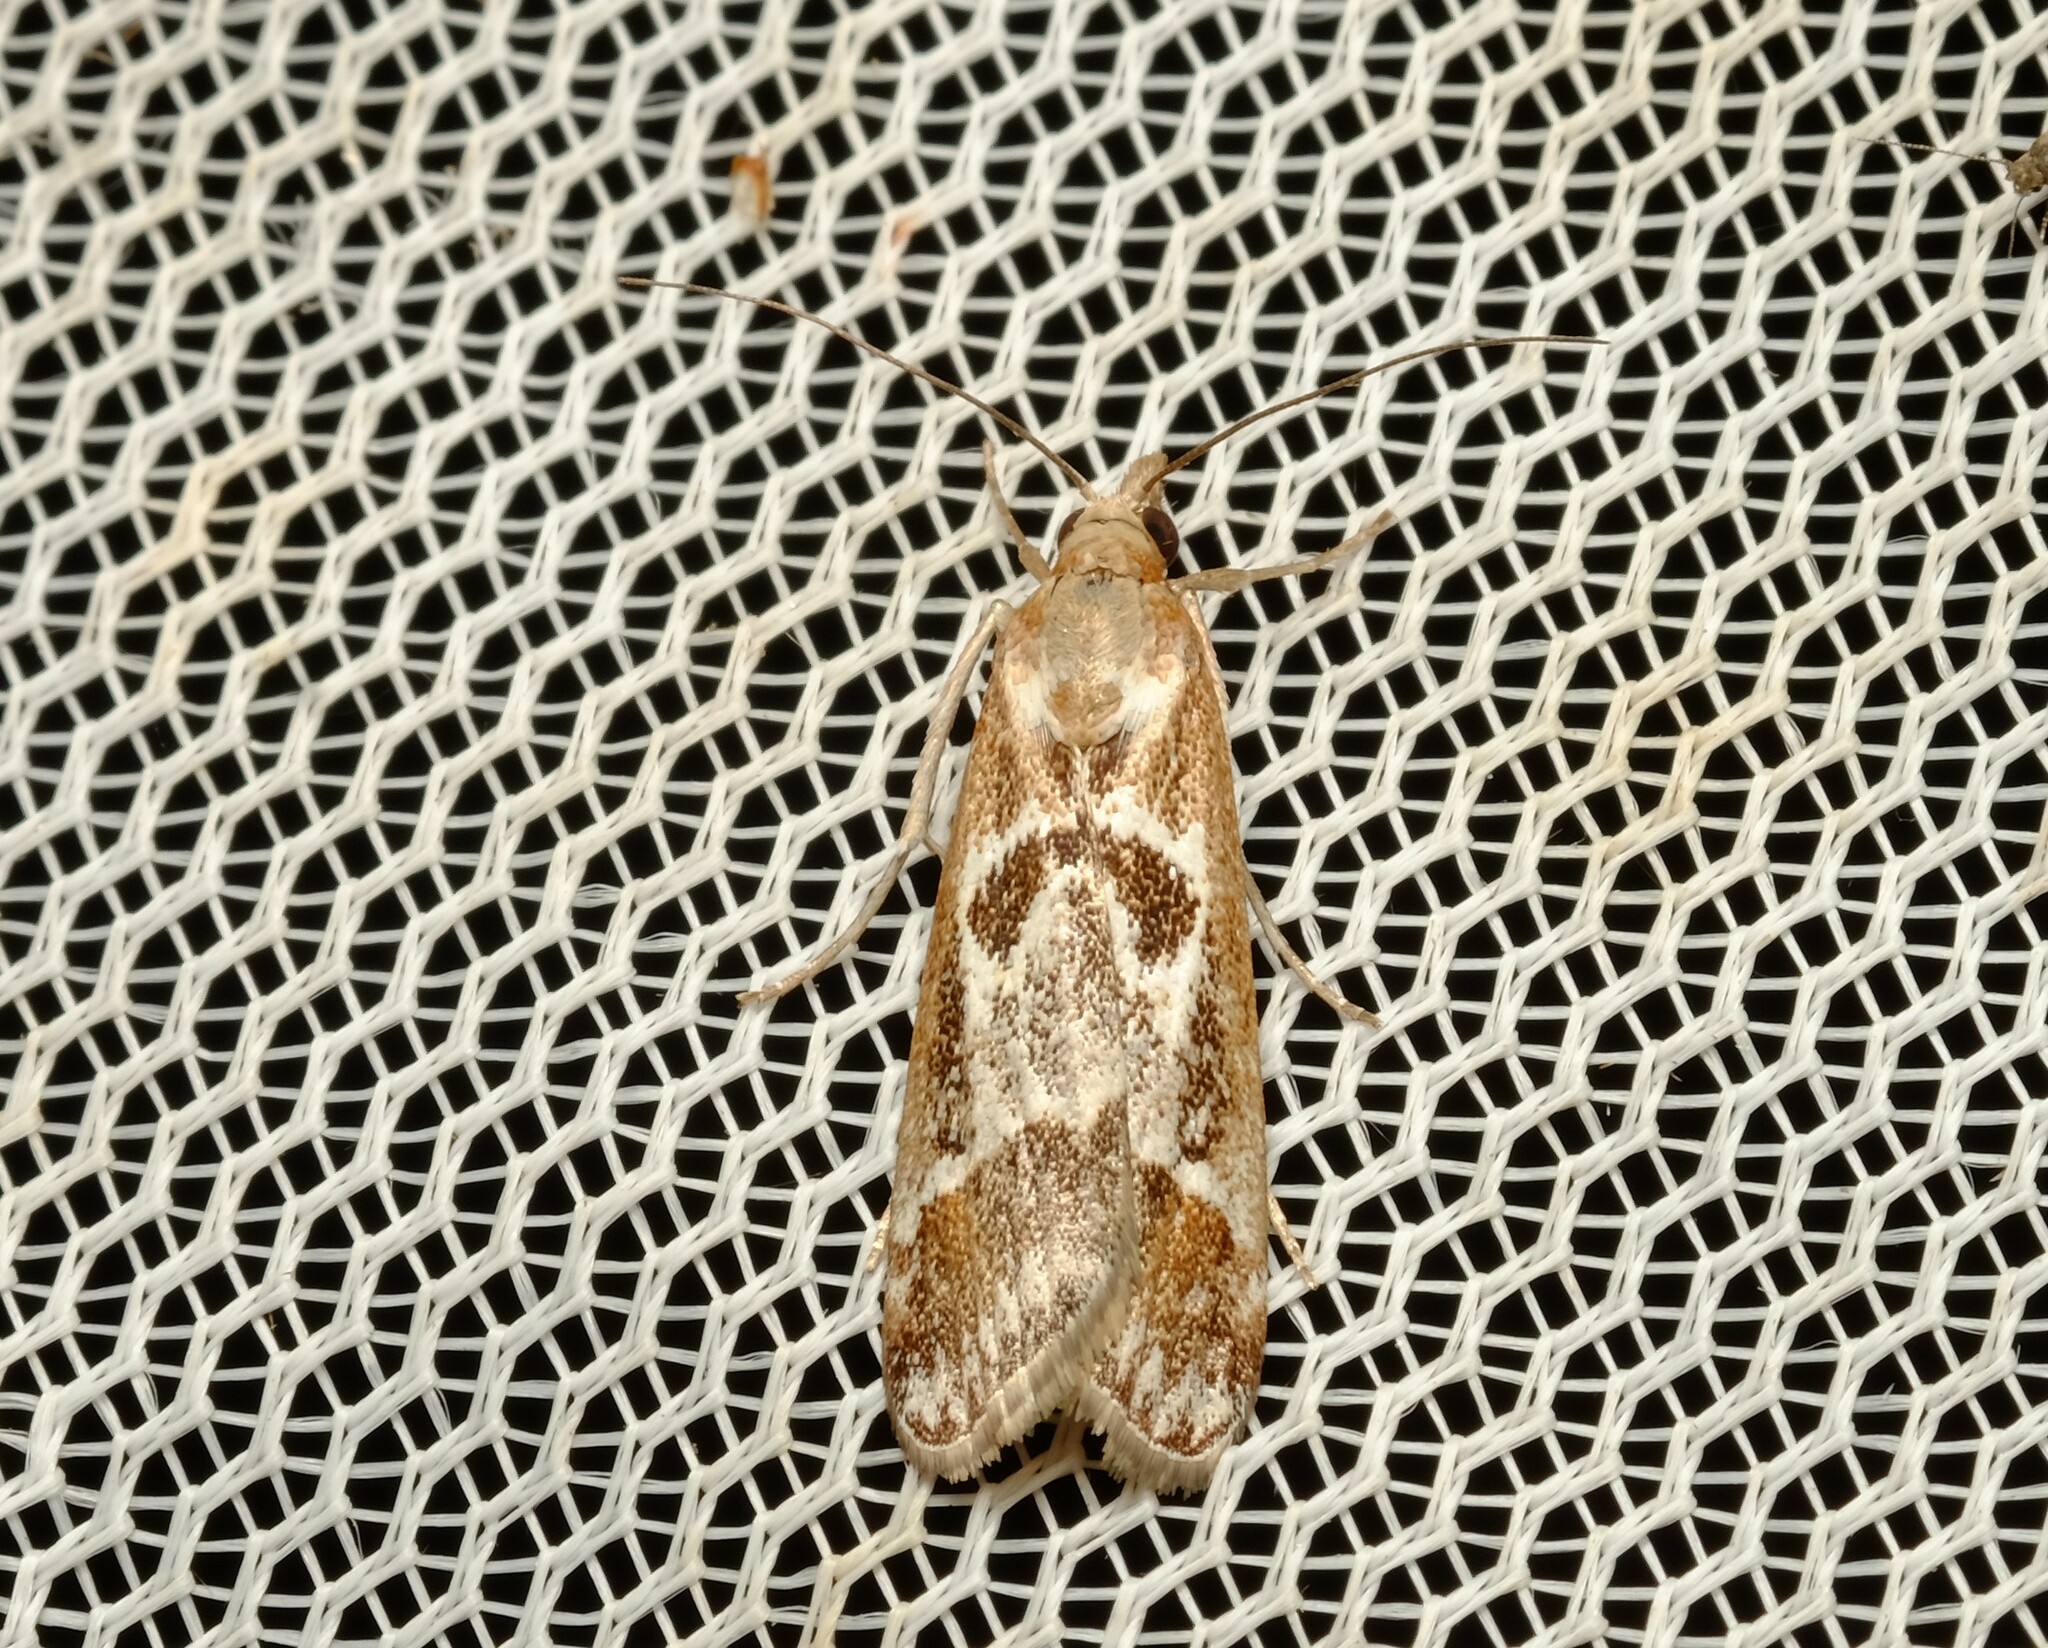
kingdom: Animalia
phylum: Arthropoda
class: Insecta
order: Lepidoptera
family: Crambidae
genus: Syntonarcha
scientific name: Syntonarcha iriastis
